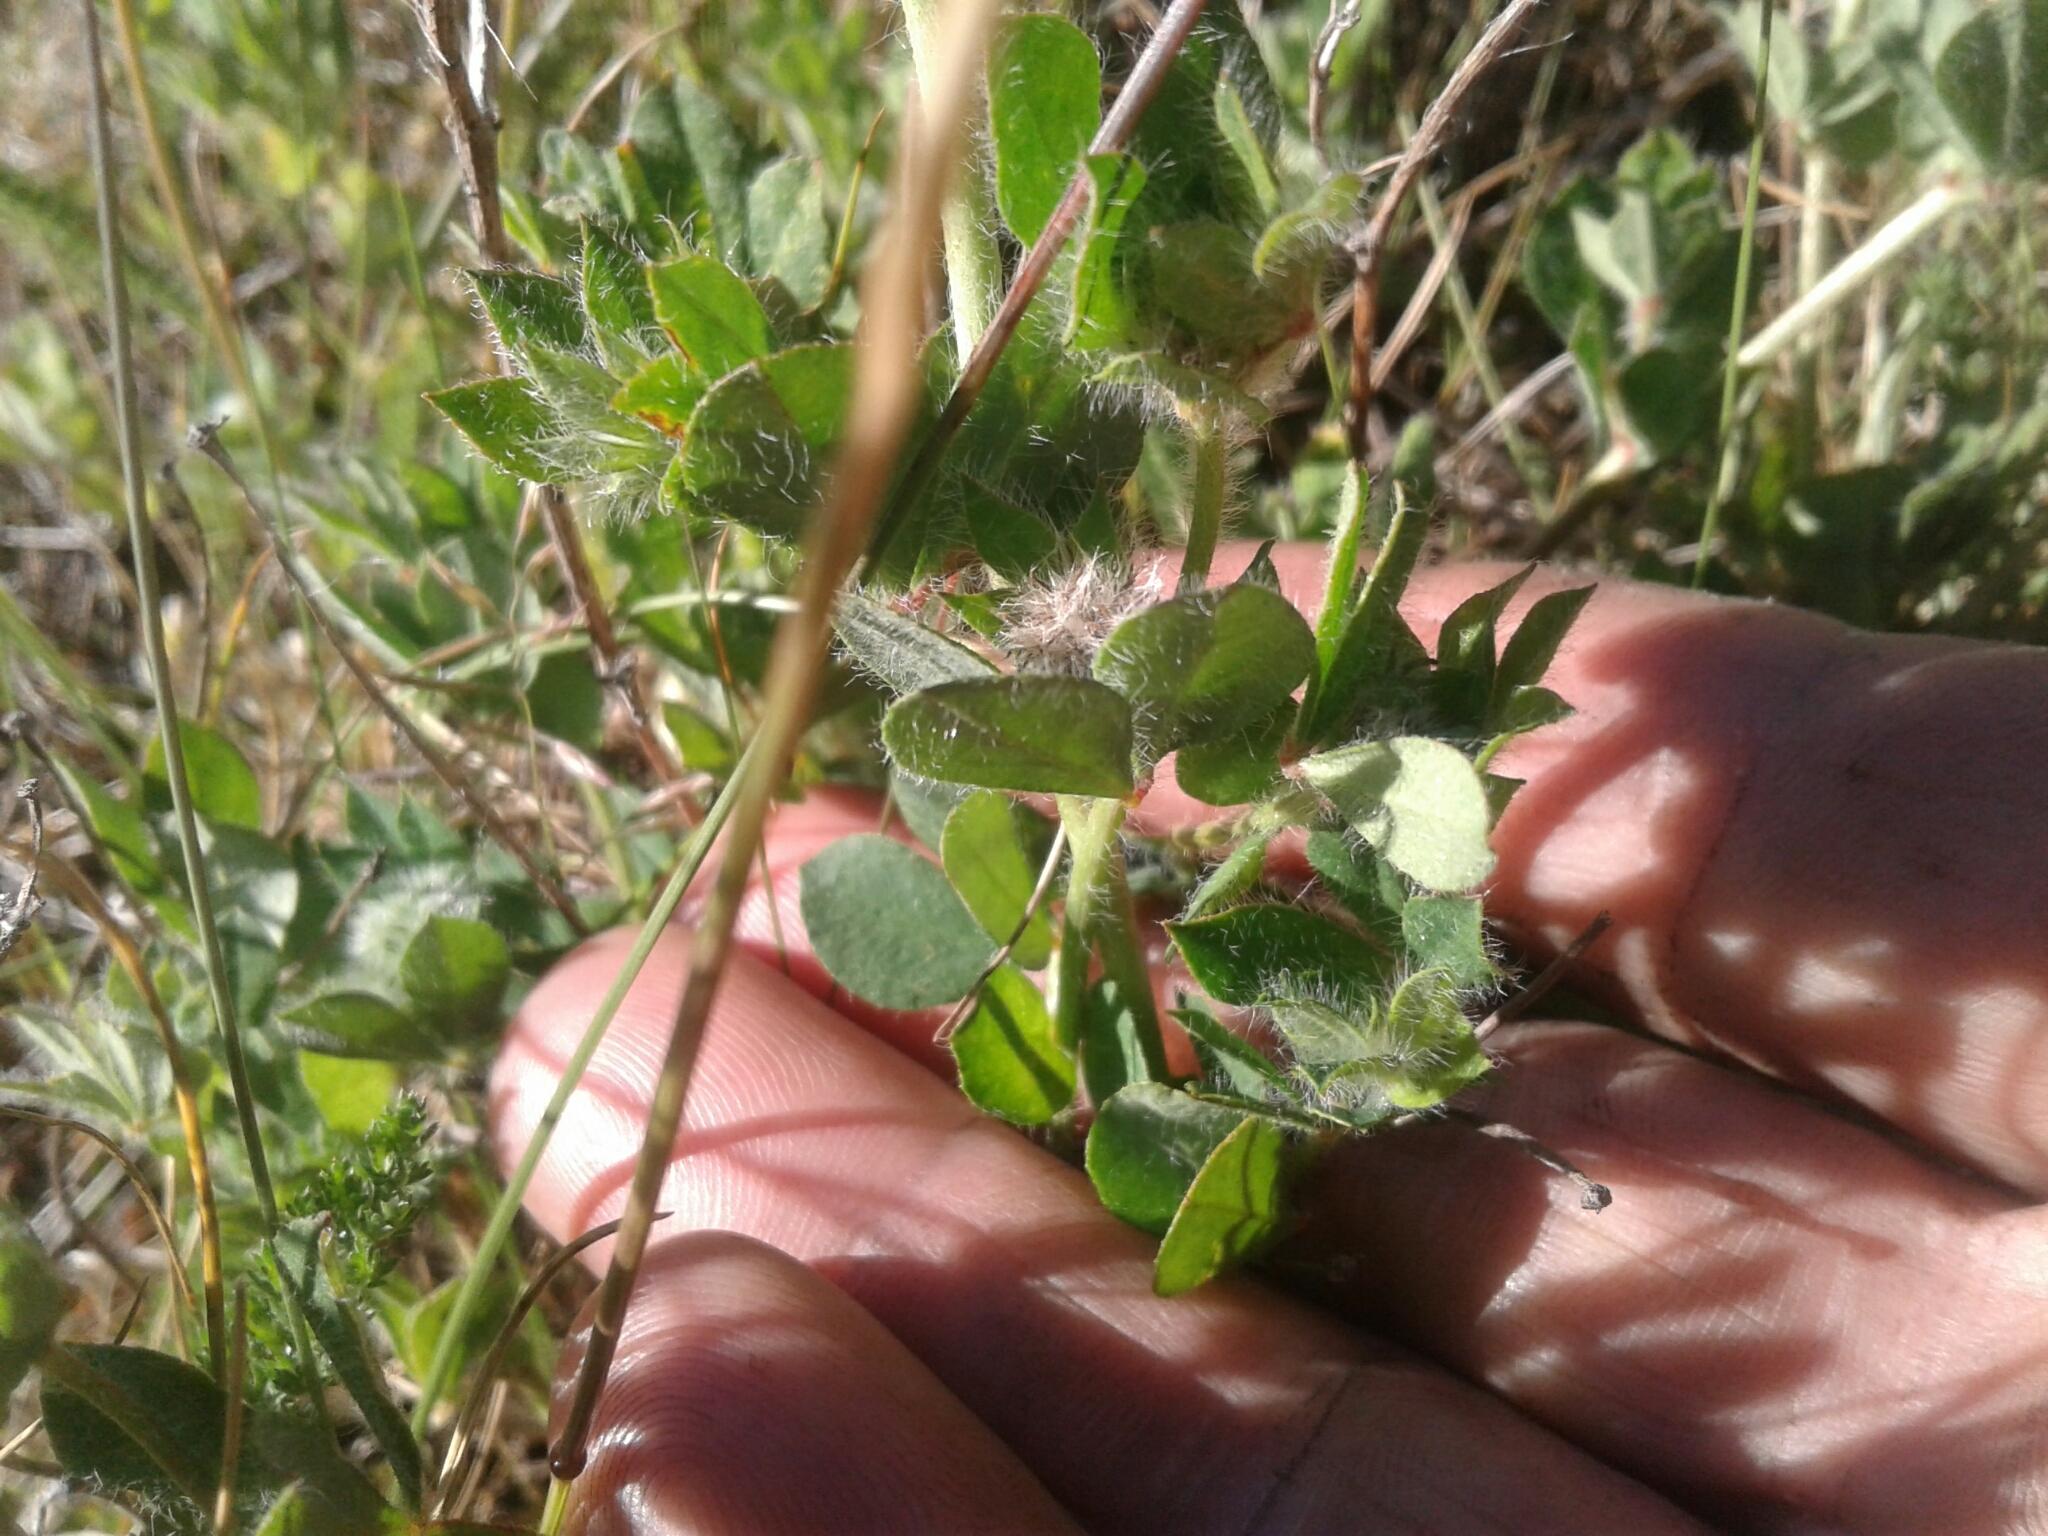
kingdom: Plantae
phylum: Tracheophyta
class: Magnoliopsida
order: Fabales
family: Fabaceae
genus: Lotus
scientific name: Lotus subbiflorus
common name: Hairy bird's-foot trefoil
